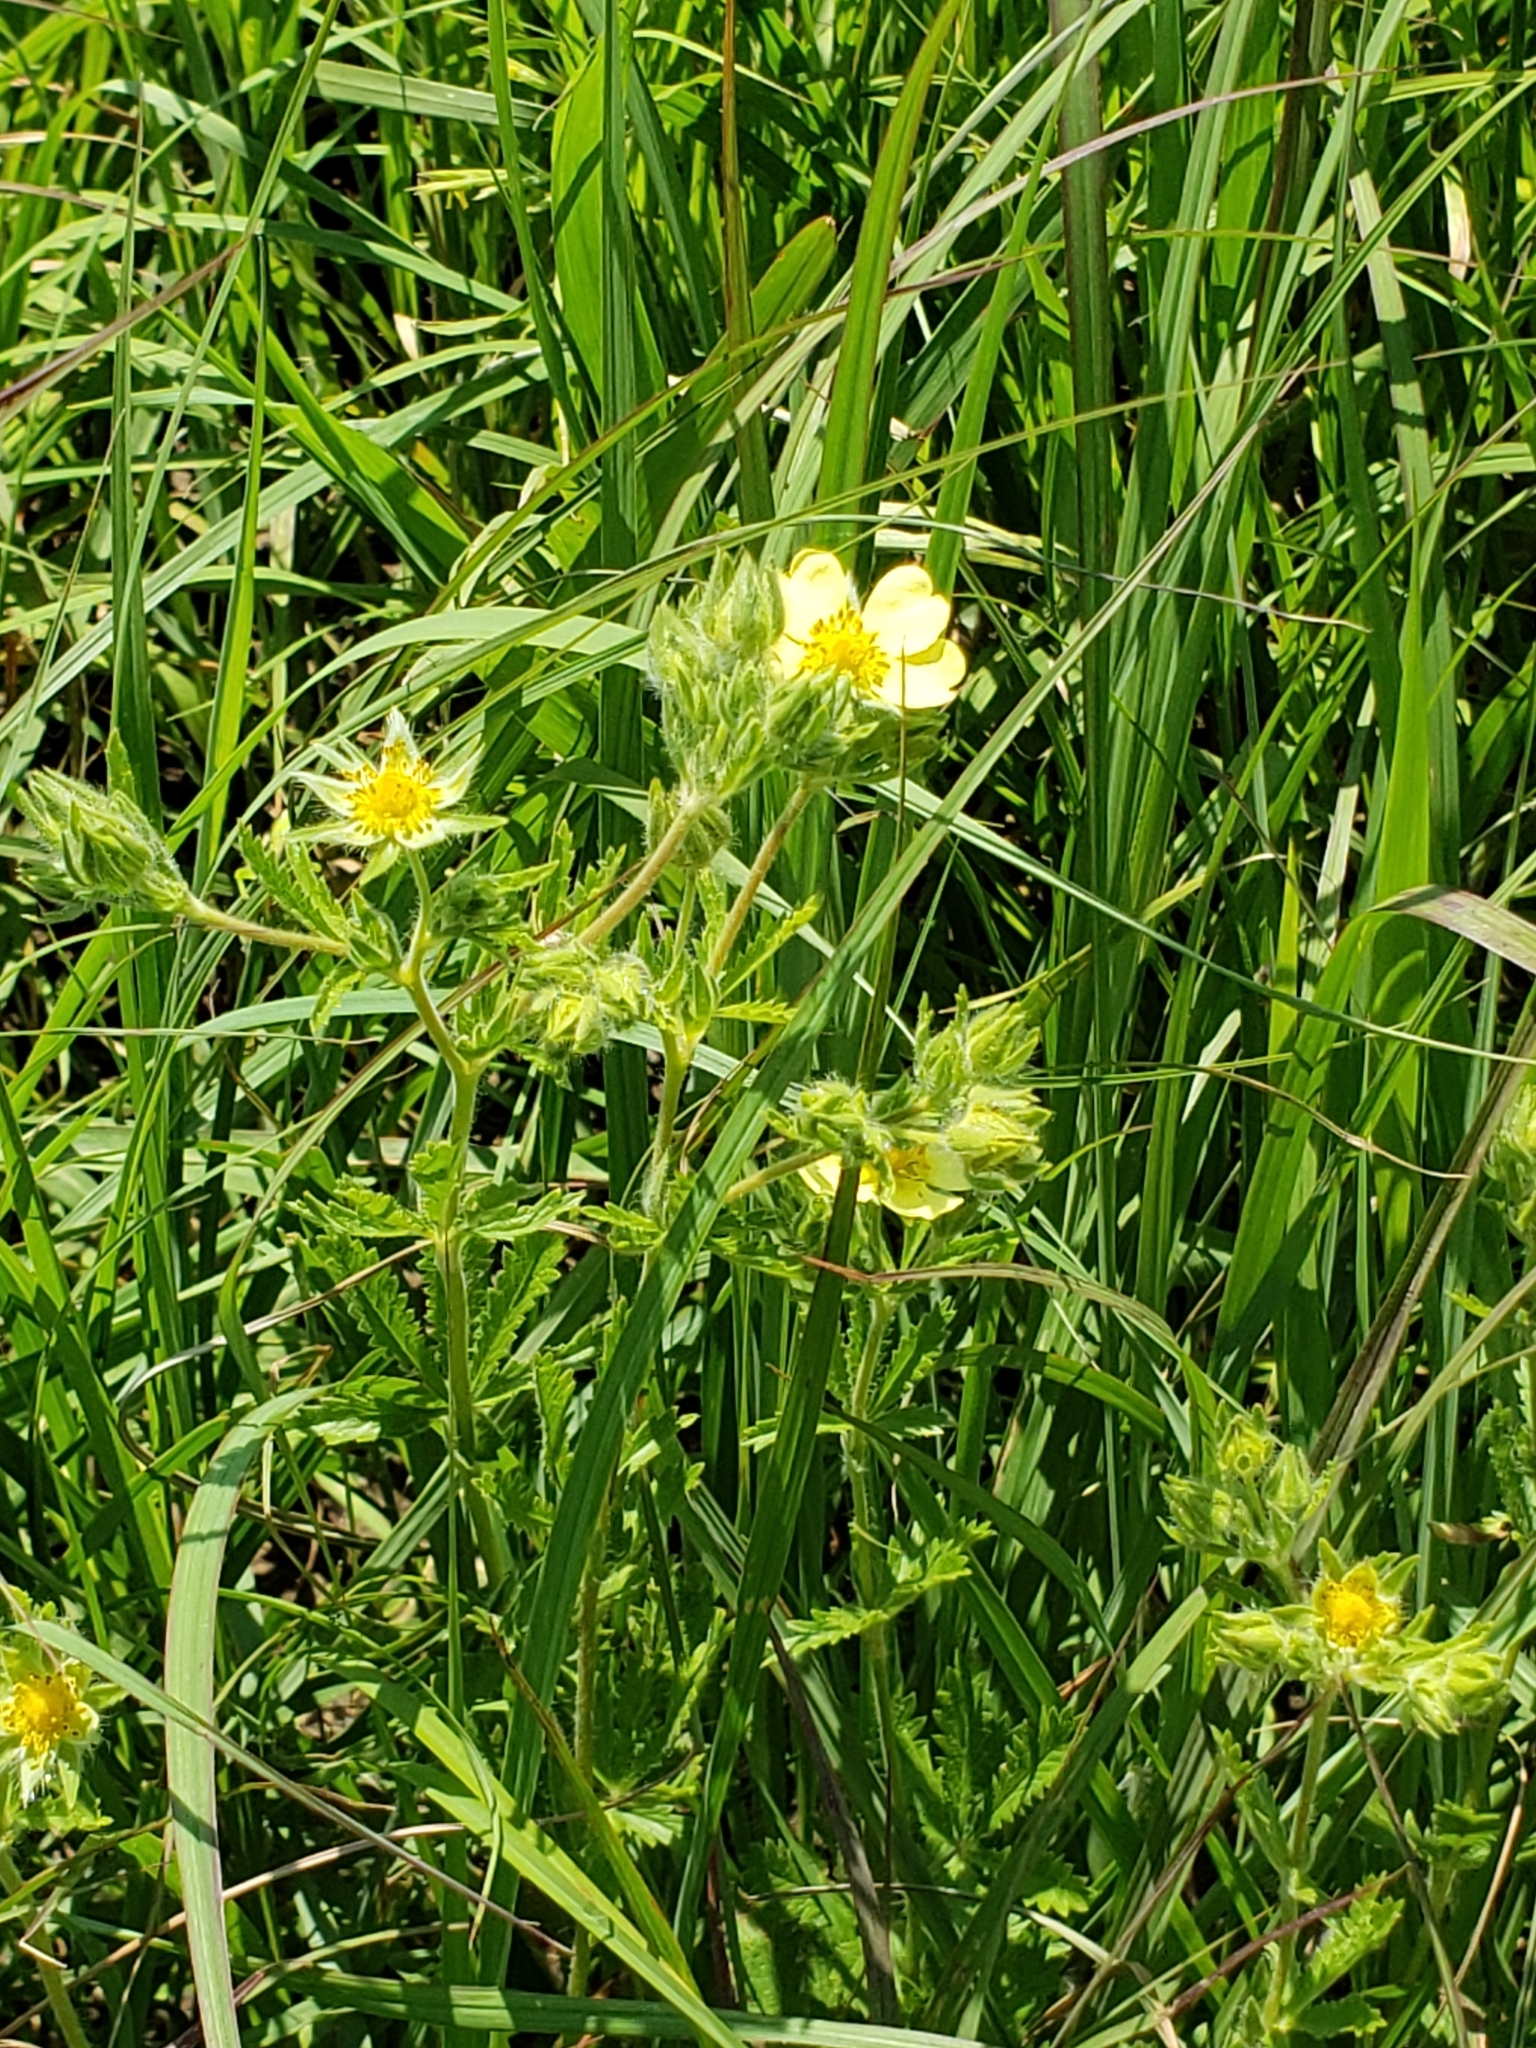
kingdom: Plantae
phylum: Tracheophyta
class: Magnoliopsida
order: Rosales
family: Rosaceae
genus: Potentilla
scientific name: Potentilla recta
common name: Sulphur cinquefoil
